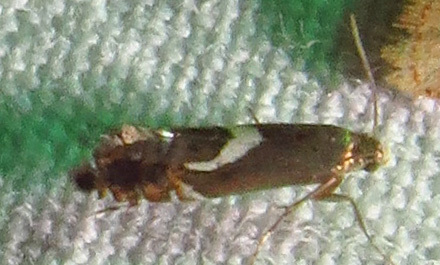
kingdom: Animalia
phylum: Arthropoda
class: Insecta
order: Lepidoptera
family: Glyphipterigidae
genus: Glyphipterix
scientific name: Glyphipterix Diploschizia impigritella
